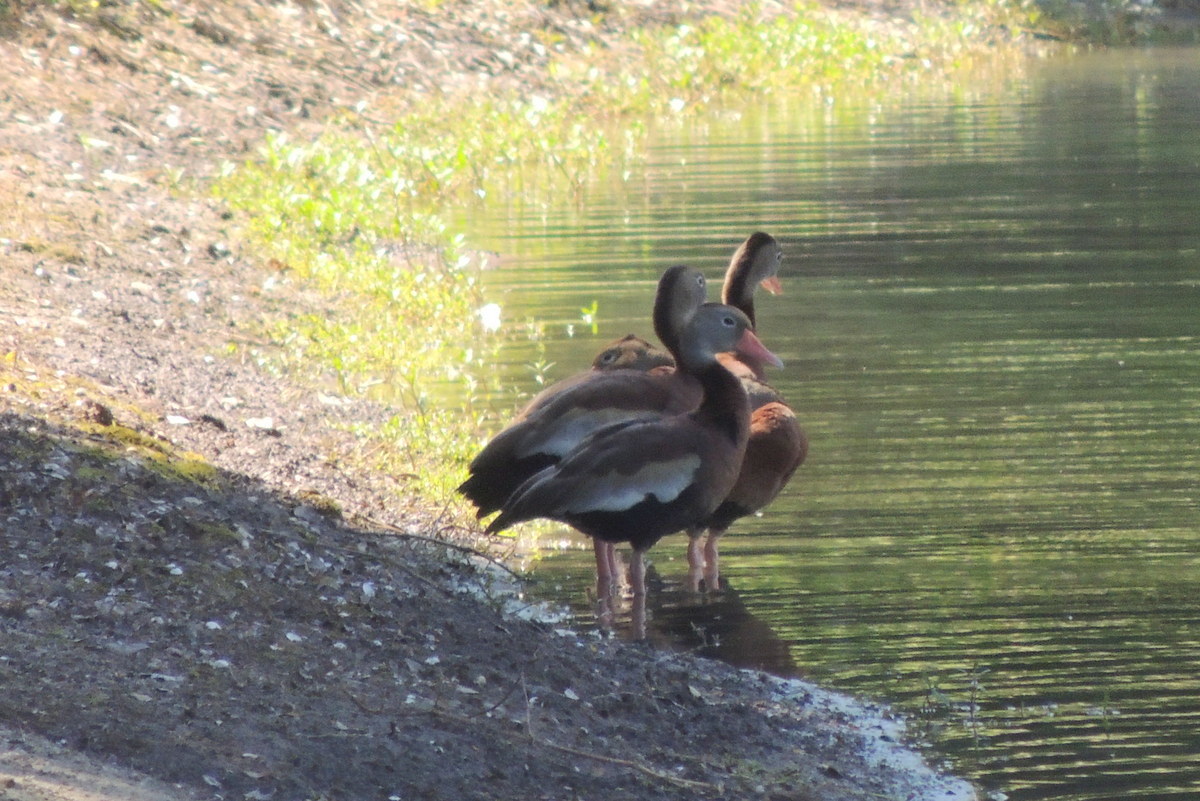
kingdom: Animalia
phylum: Chordata
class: Aves
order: Anseriformes
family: Anatidae
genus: Dendrocygna
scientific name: Dendrocygna autumnalis
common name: Black-bellied whistling duck
